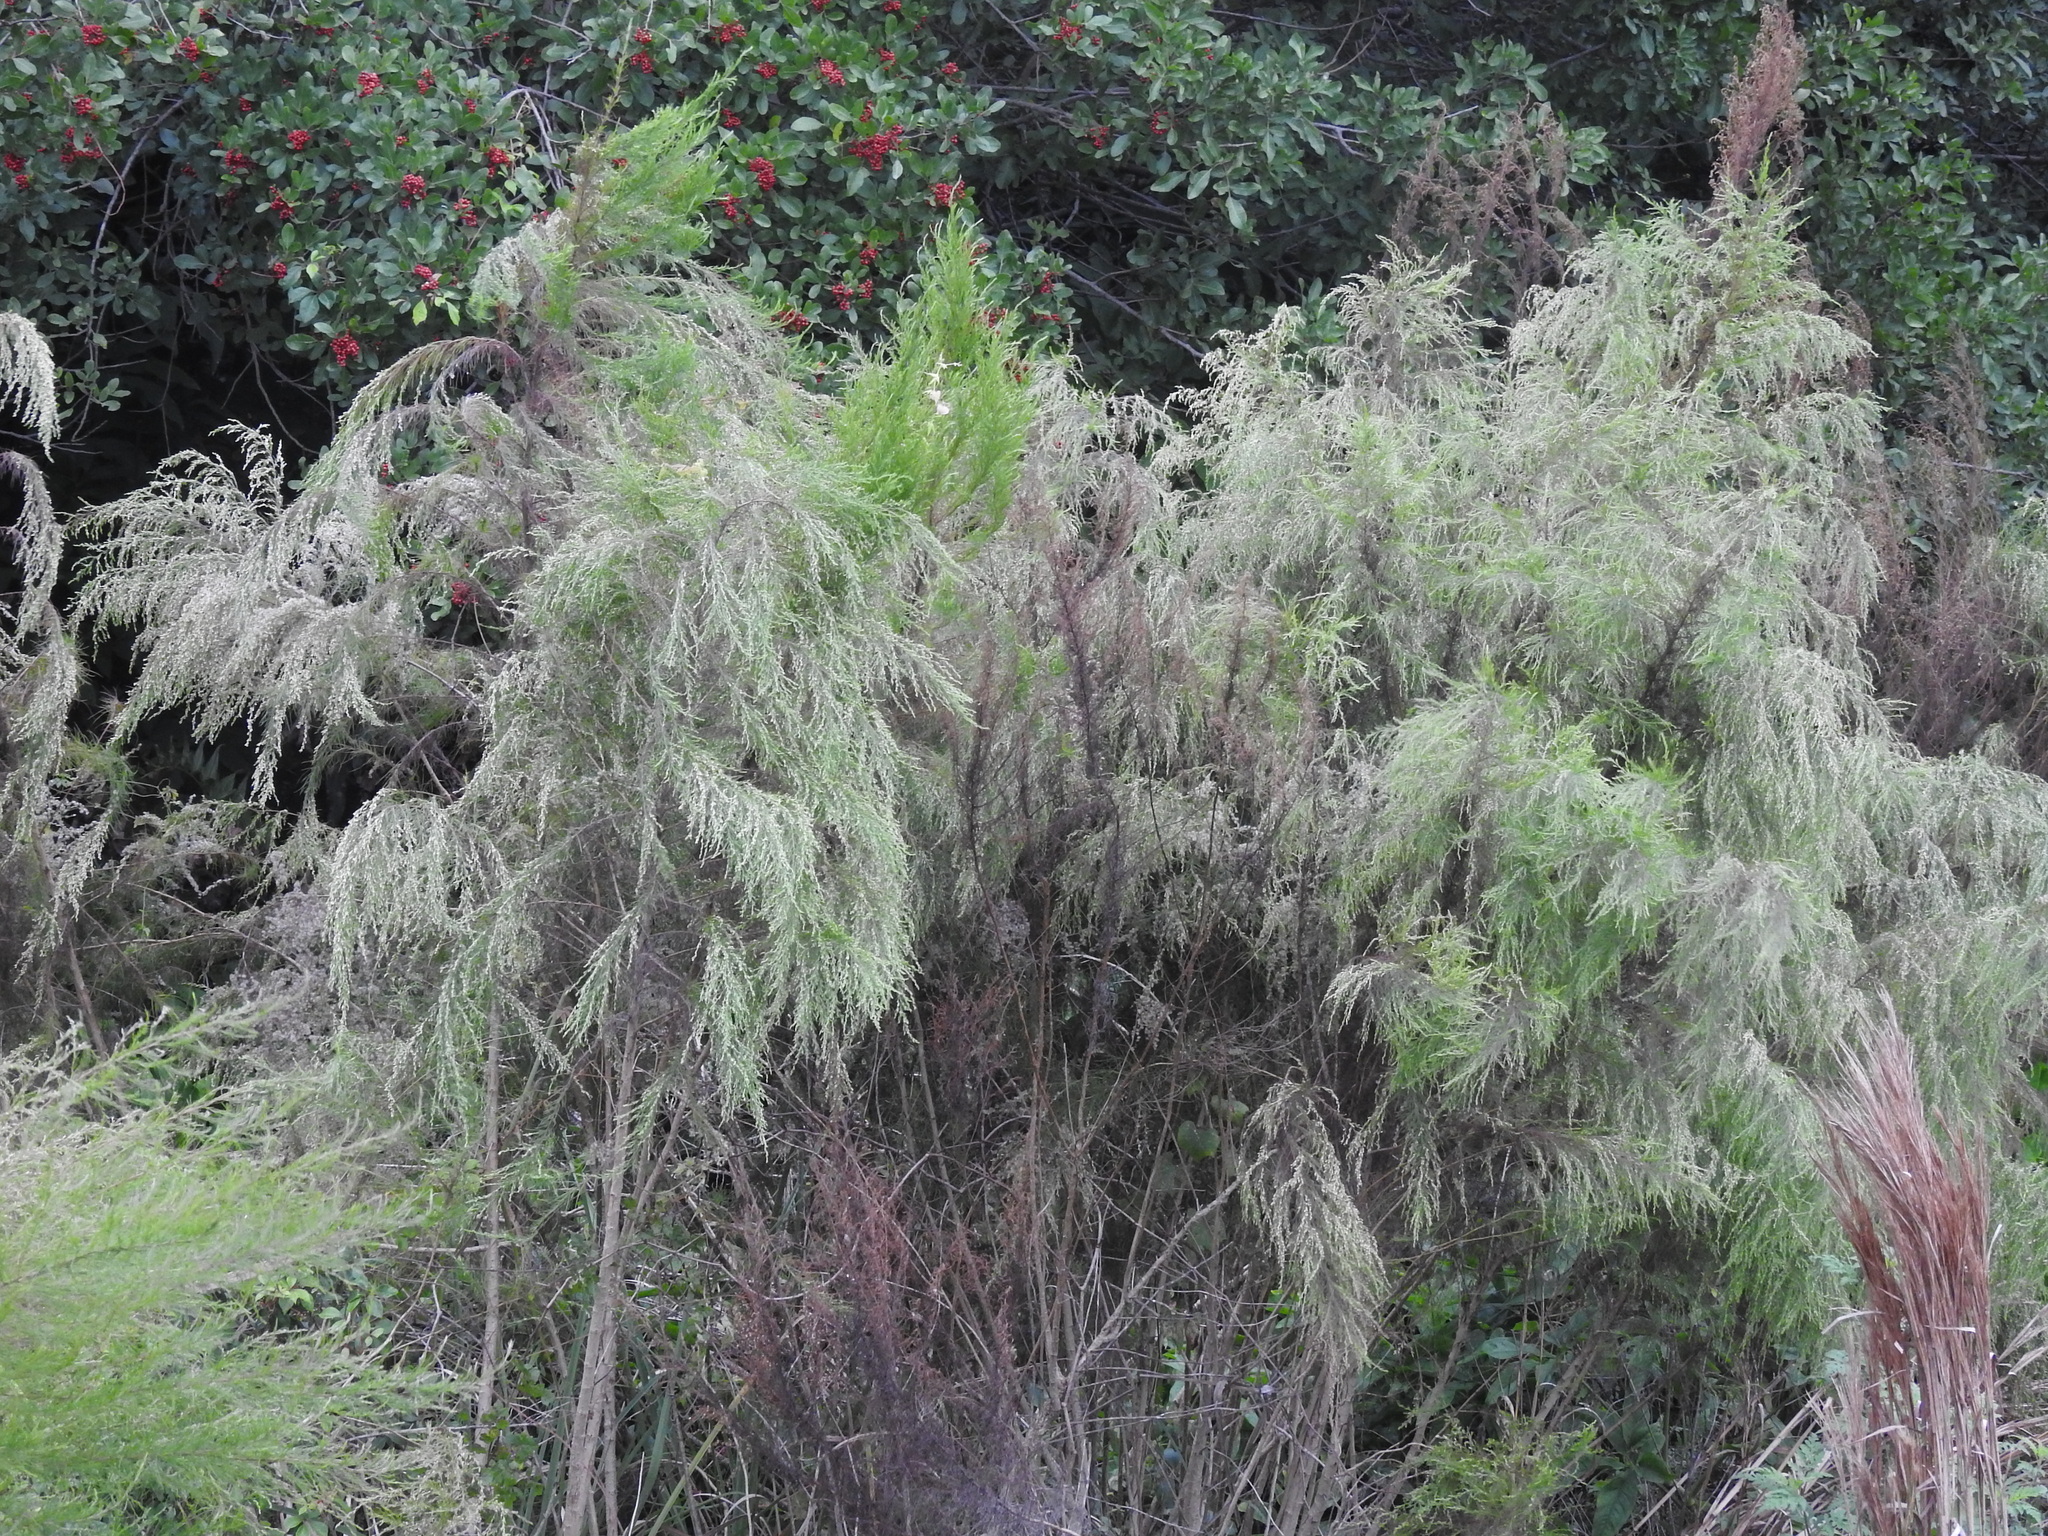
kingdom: Plantae
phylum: Tracheophyta
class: Magnoliopsida
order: Asterales
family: Asteraceae
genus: Eupatorium
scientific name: Eupatorium capillifolium
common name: Dog-fennel
